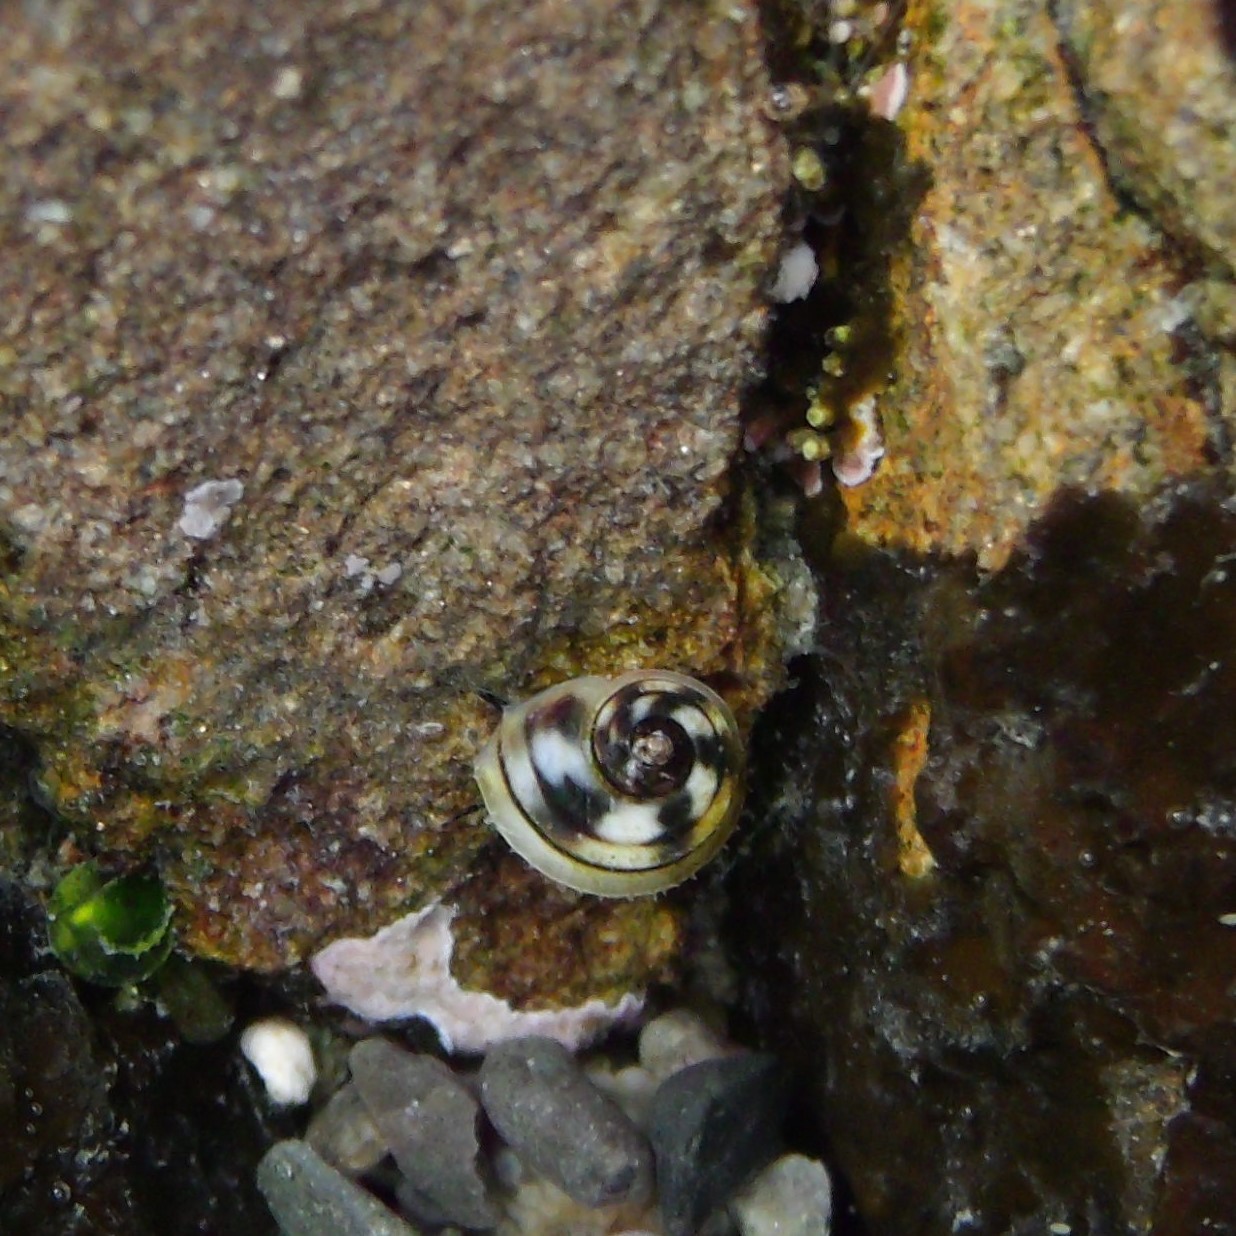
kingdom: Animalia
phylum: Mollusca
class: Gastropoda
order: Littorinimorpha
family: Littorinidae
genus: Risellopsis
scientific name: Risellopsis varia
